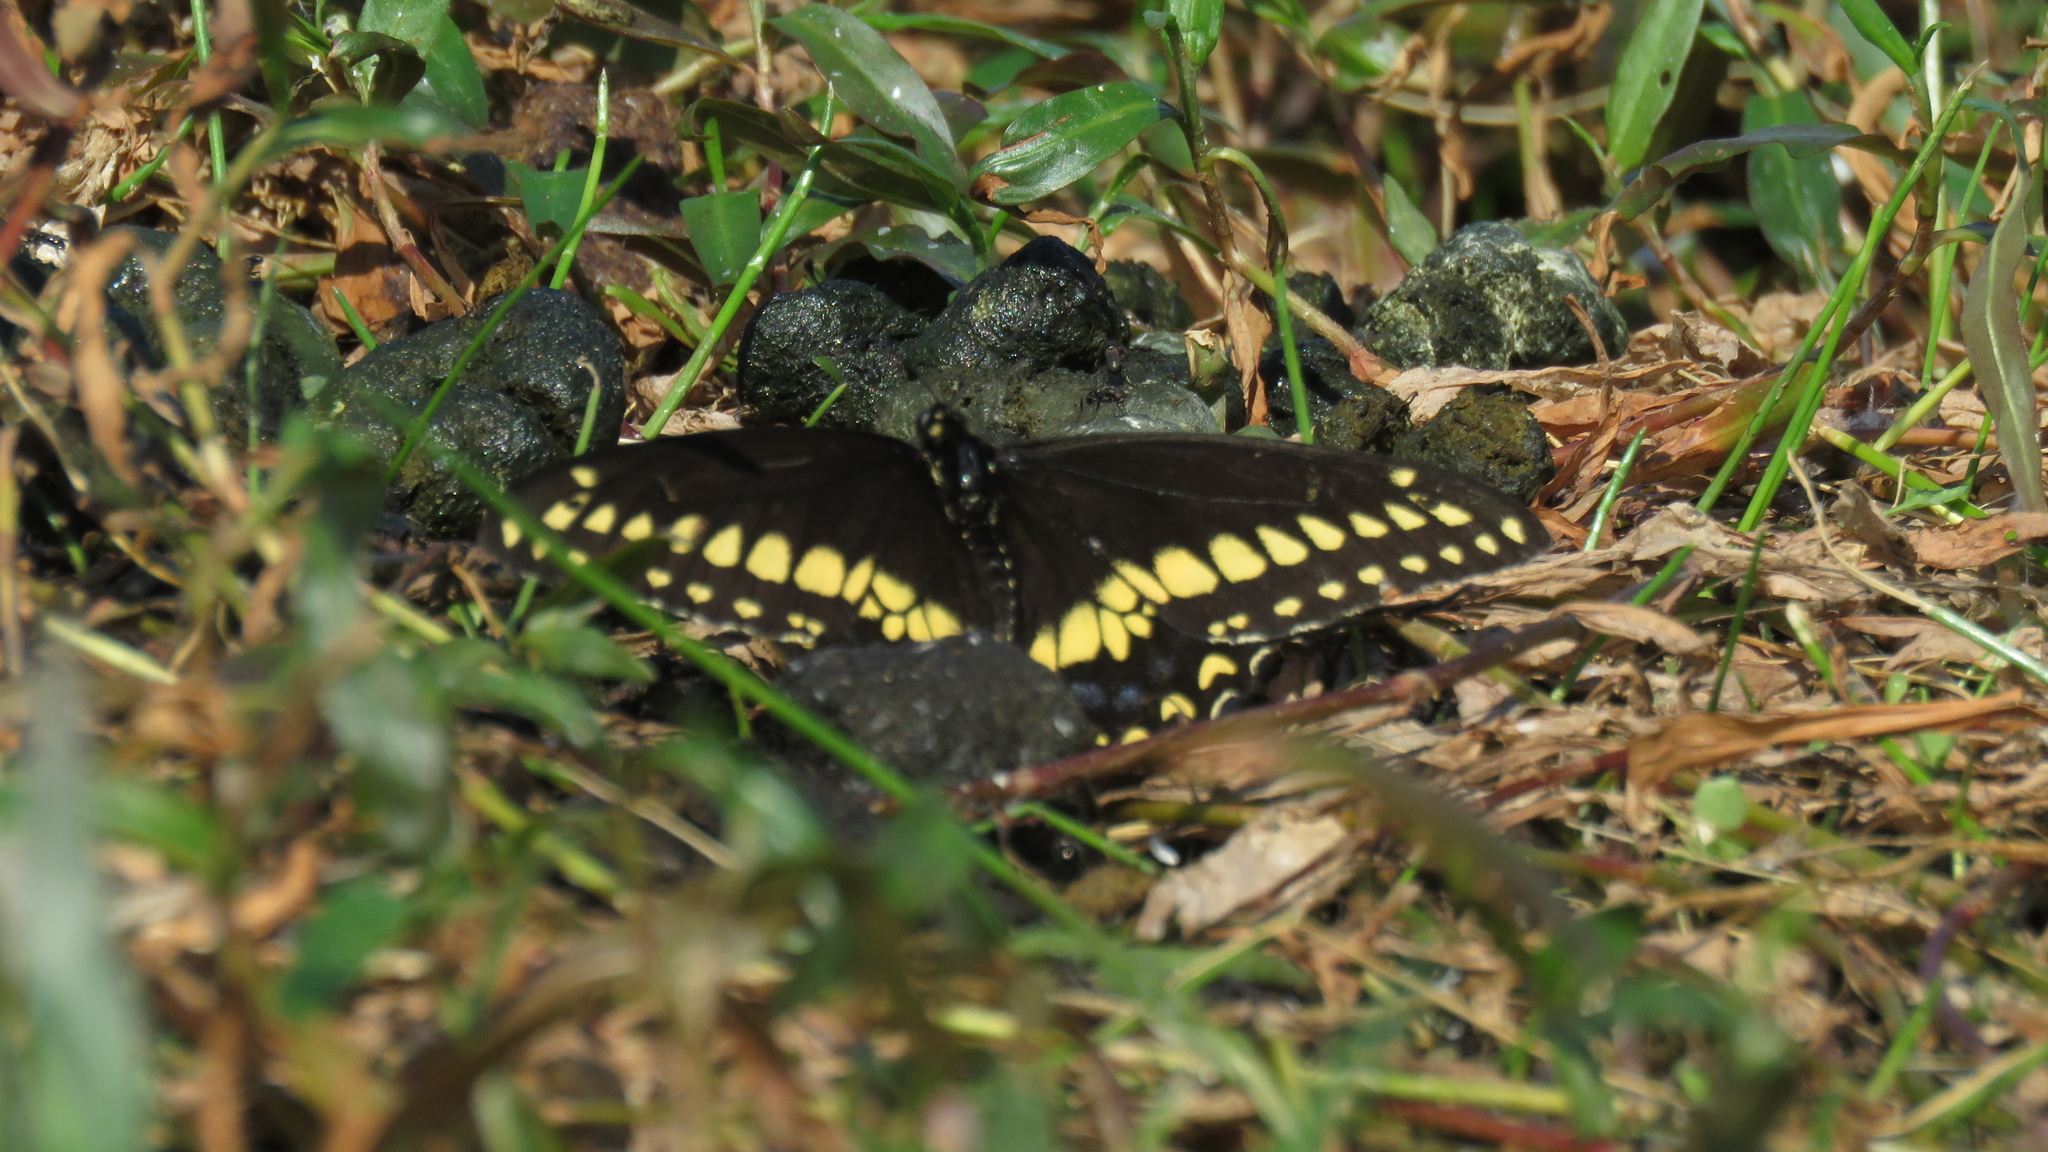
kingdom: Animalia
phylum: Arthropoda
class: Insecta
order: Lepidoptera
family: Papilionidae
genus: Papilio
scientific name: Papilio polyxenes
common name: Black swallowtail
